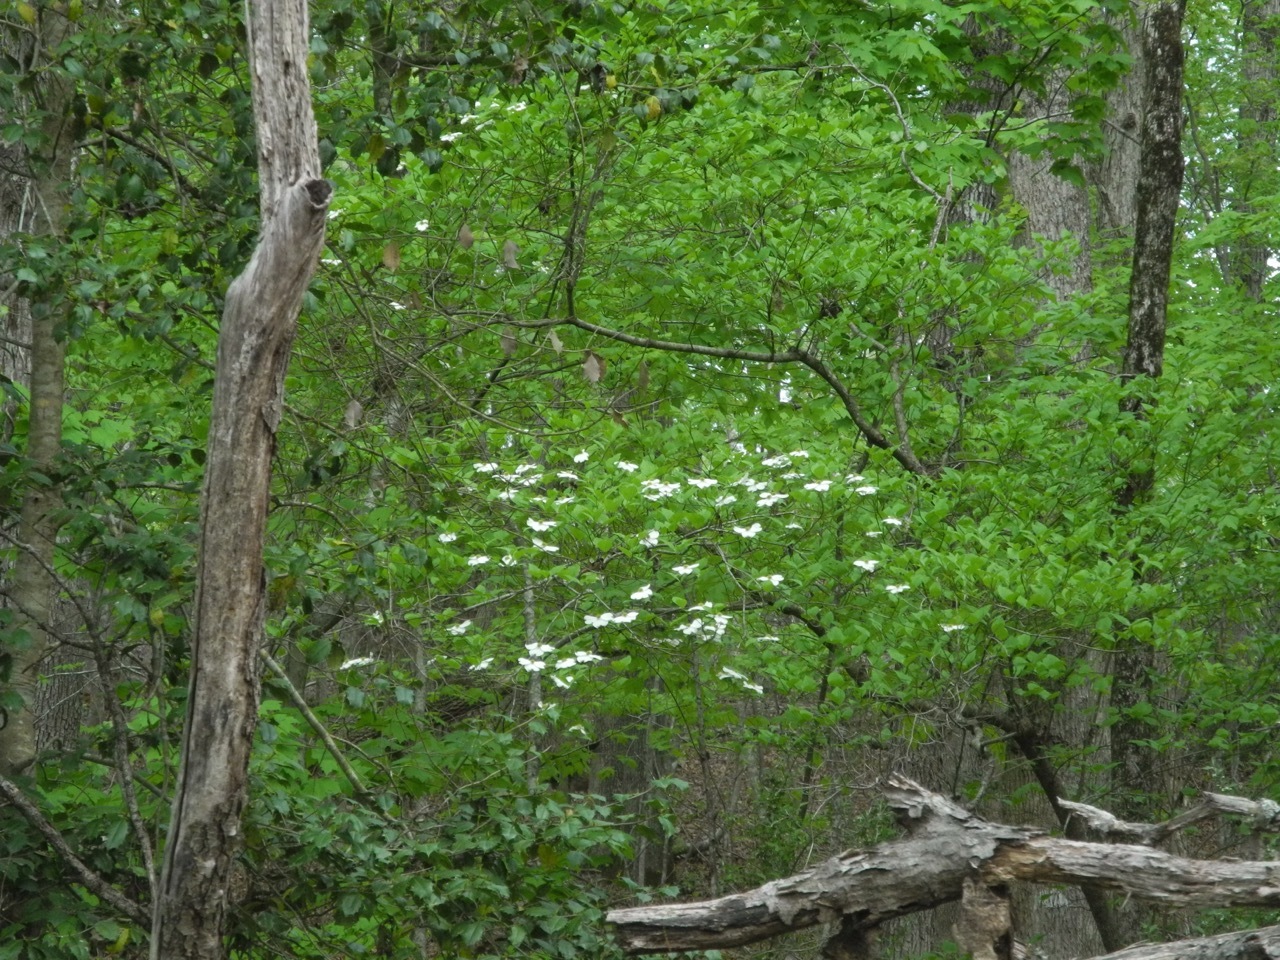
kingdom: Plantae
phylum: Tracheophyta
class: Magnoliopsida
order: Cornales
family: Cornaceae
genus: Cornus
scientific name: Cornus florida
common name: Flowering dogwood
